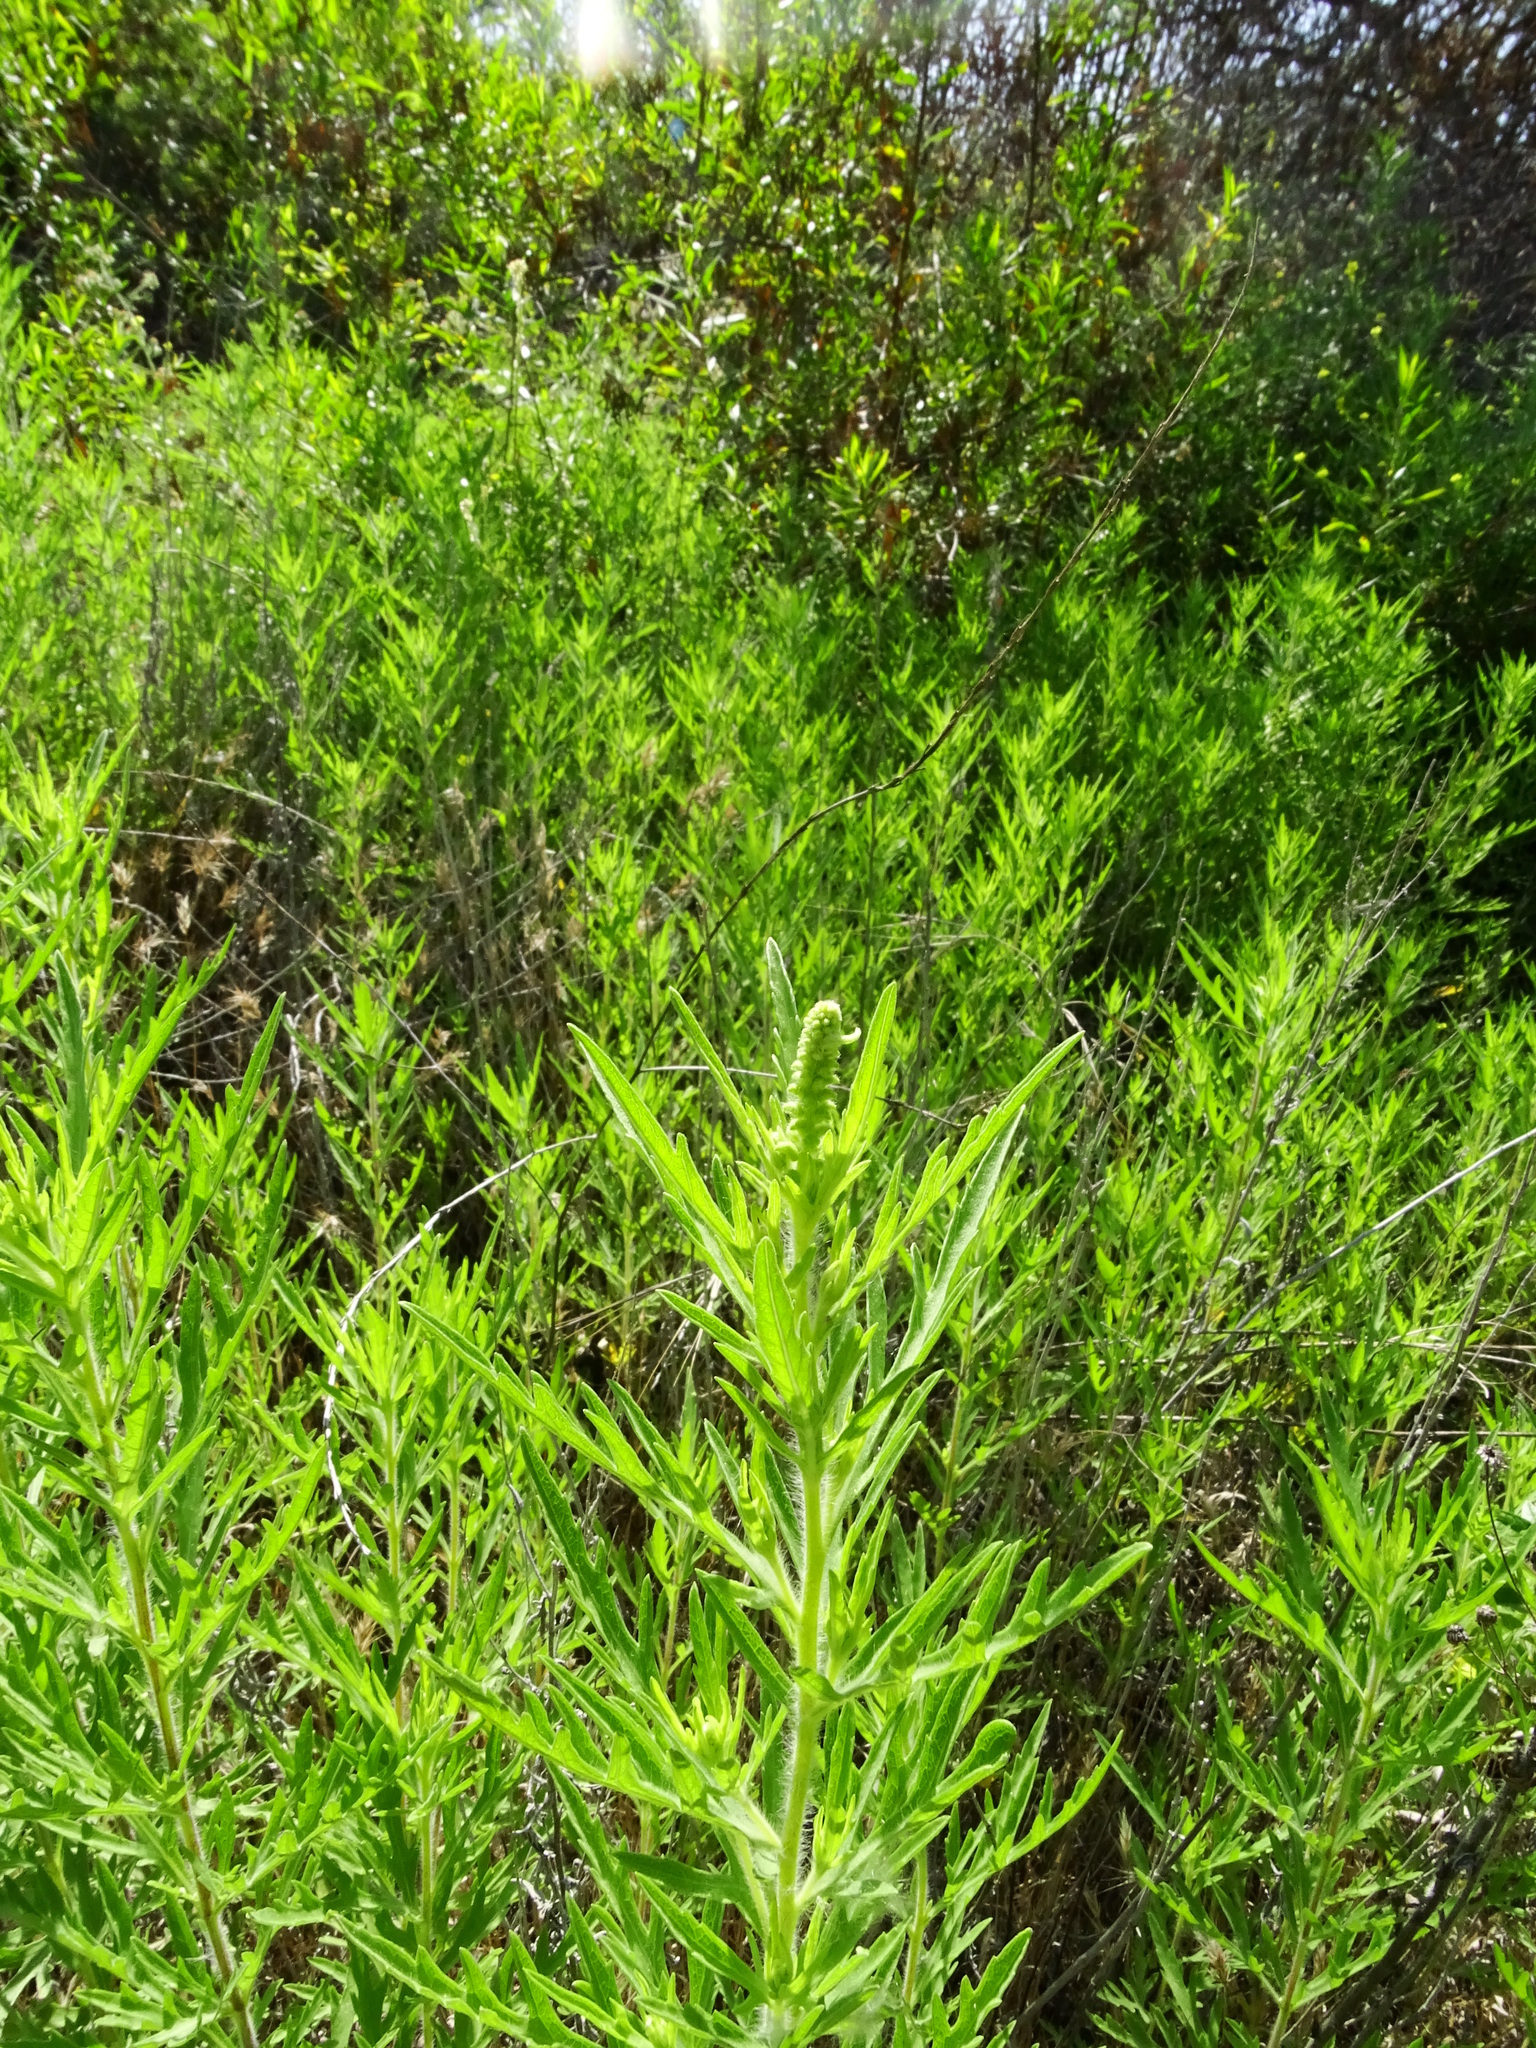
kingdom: Plantae
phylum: Tracheophyta
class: Magnoliopsida
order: Asterales
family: Asteraceae
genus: Ambrosia
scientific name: Ambrosia psilostachya
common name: Perennial ragweed
